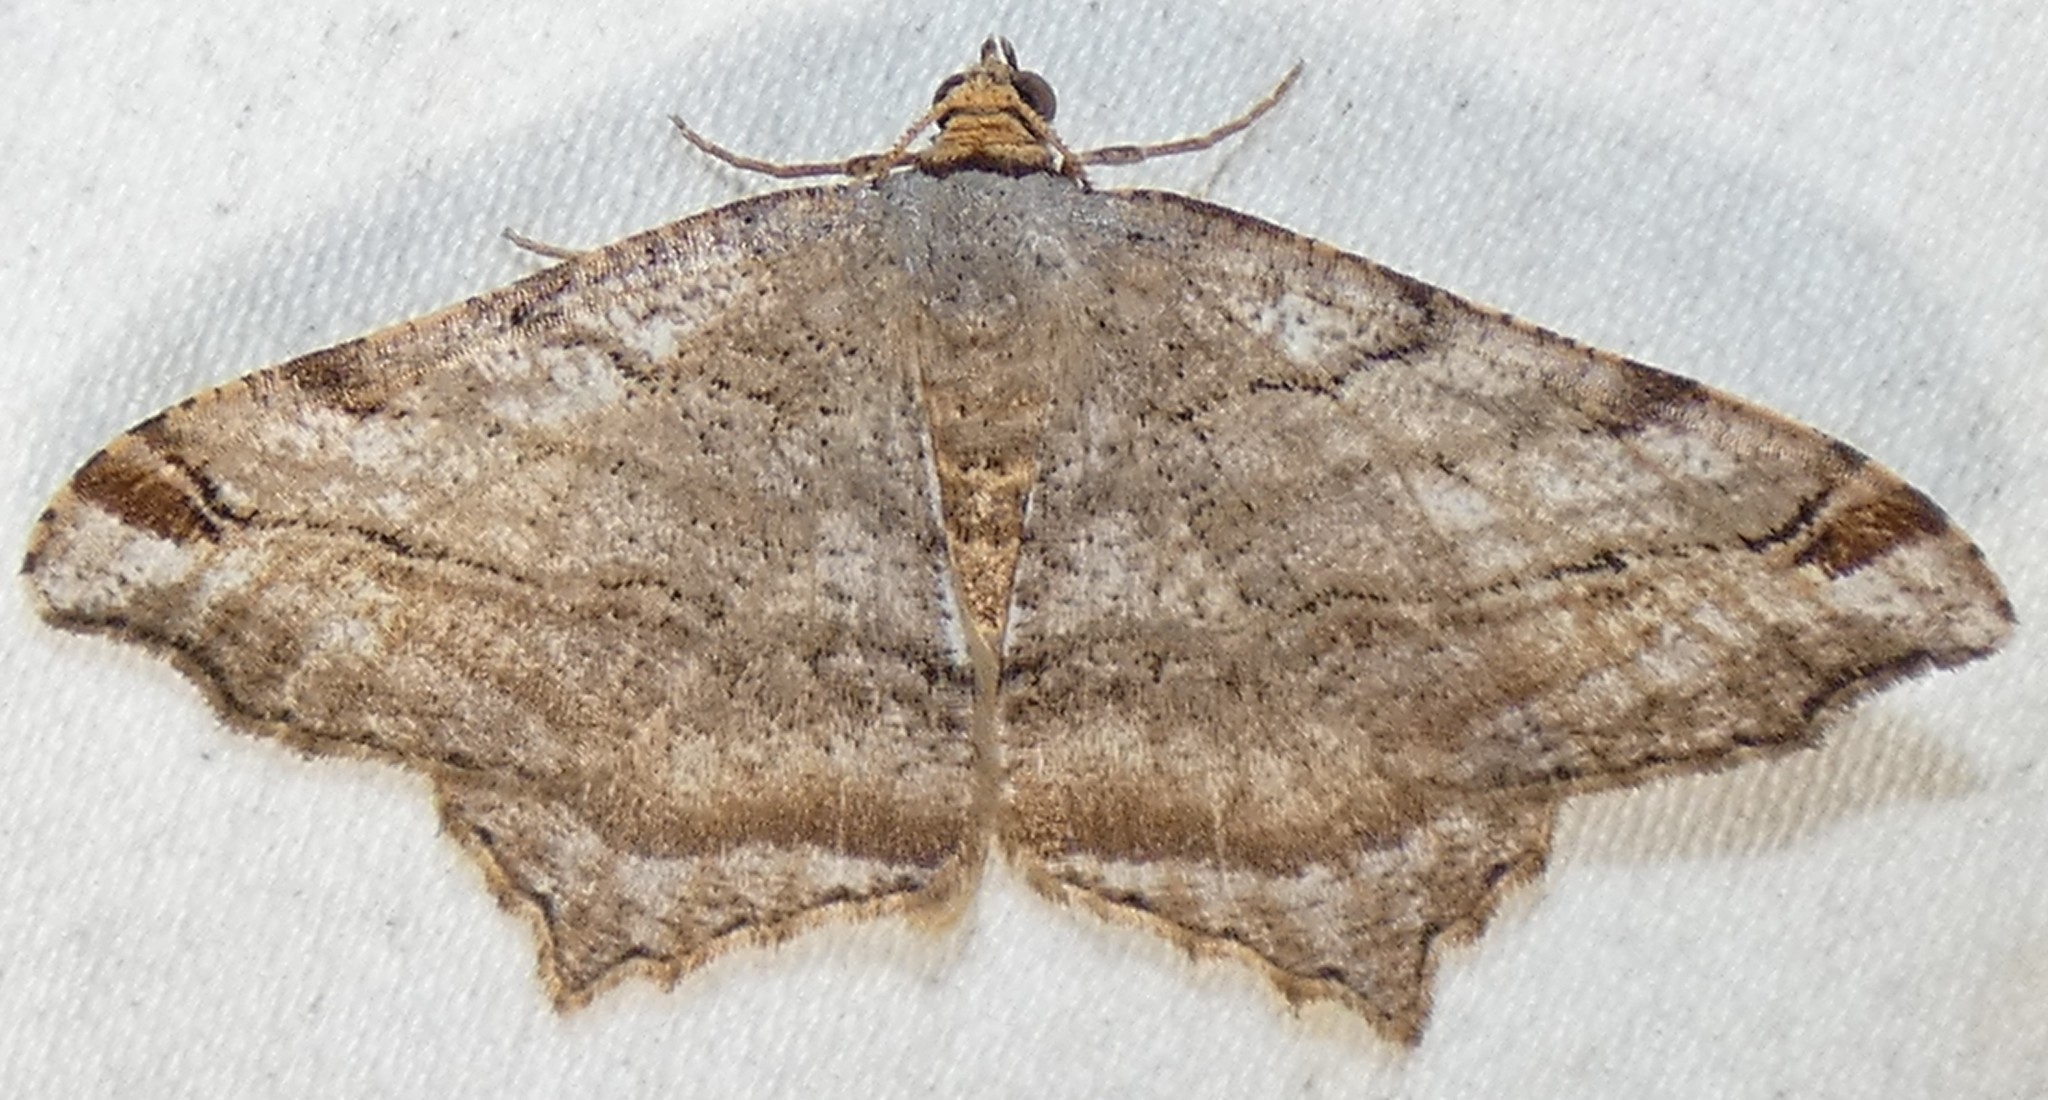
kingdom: Animalia
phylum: Arthropoda
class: Insecta
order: Lepidoptera
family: Geometridae
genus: Macaria
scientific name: Macaria multilineata
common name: Many-lined angle
